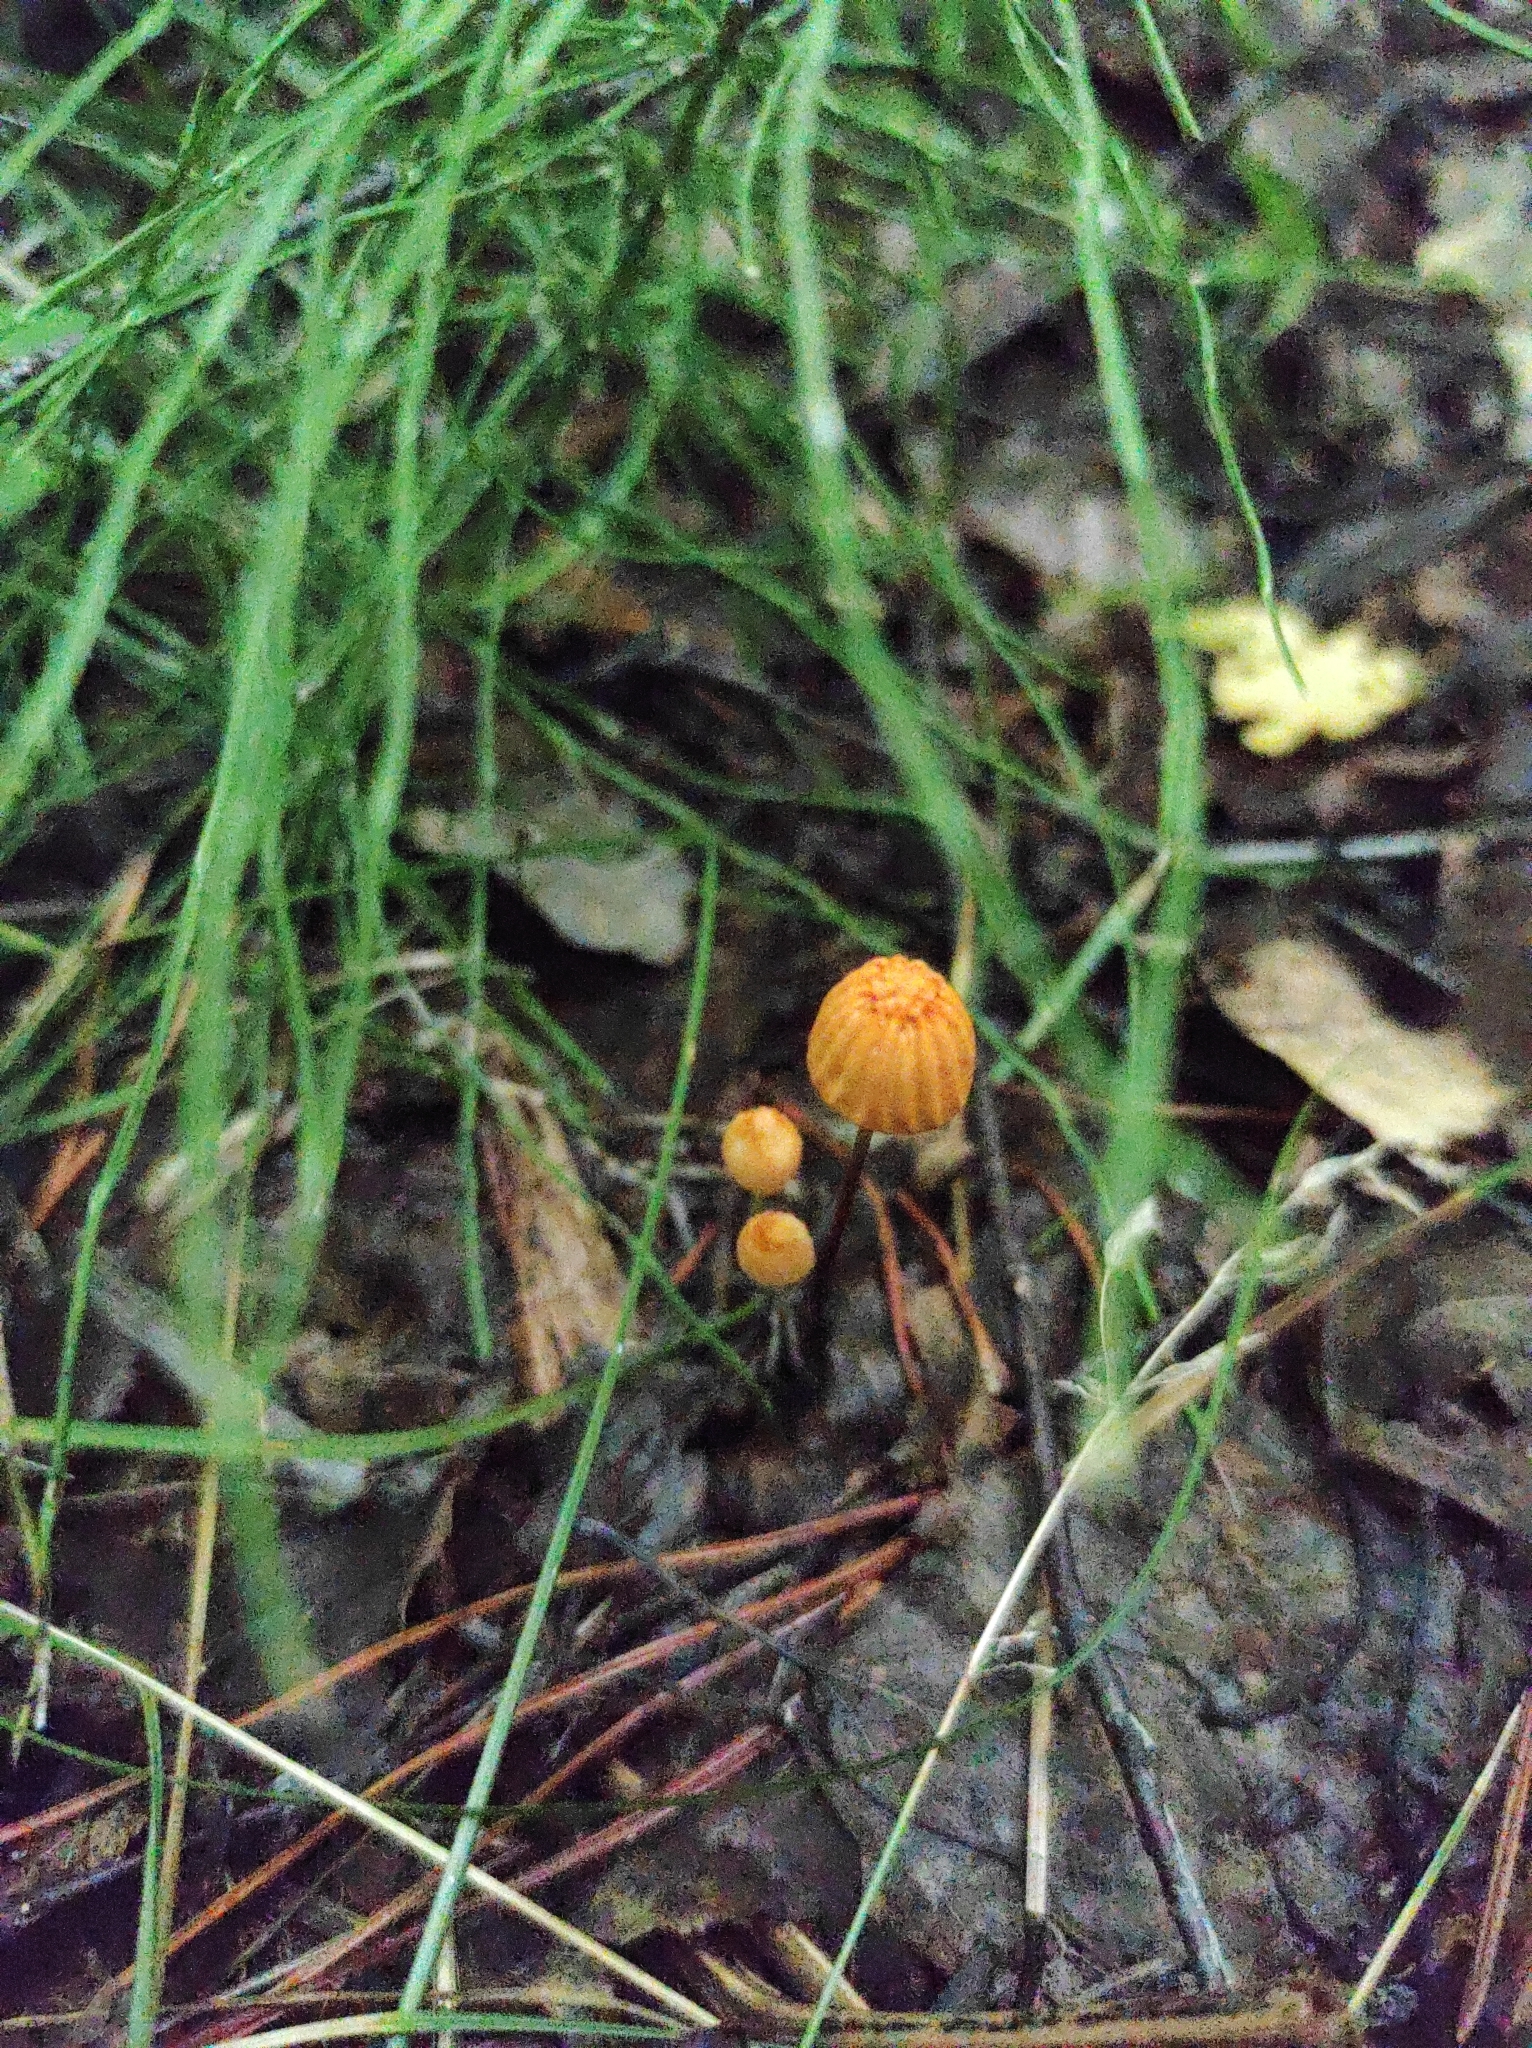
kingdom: Fungi
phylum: Basidiomycota
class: Agaricomycetes
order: Agaricales
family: Marasmiaceae
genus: Marasmius
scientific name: Marasmius siccus
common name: Orange pinwheel
